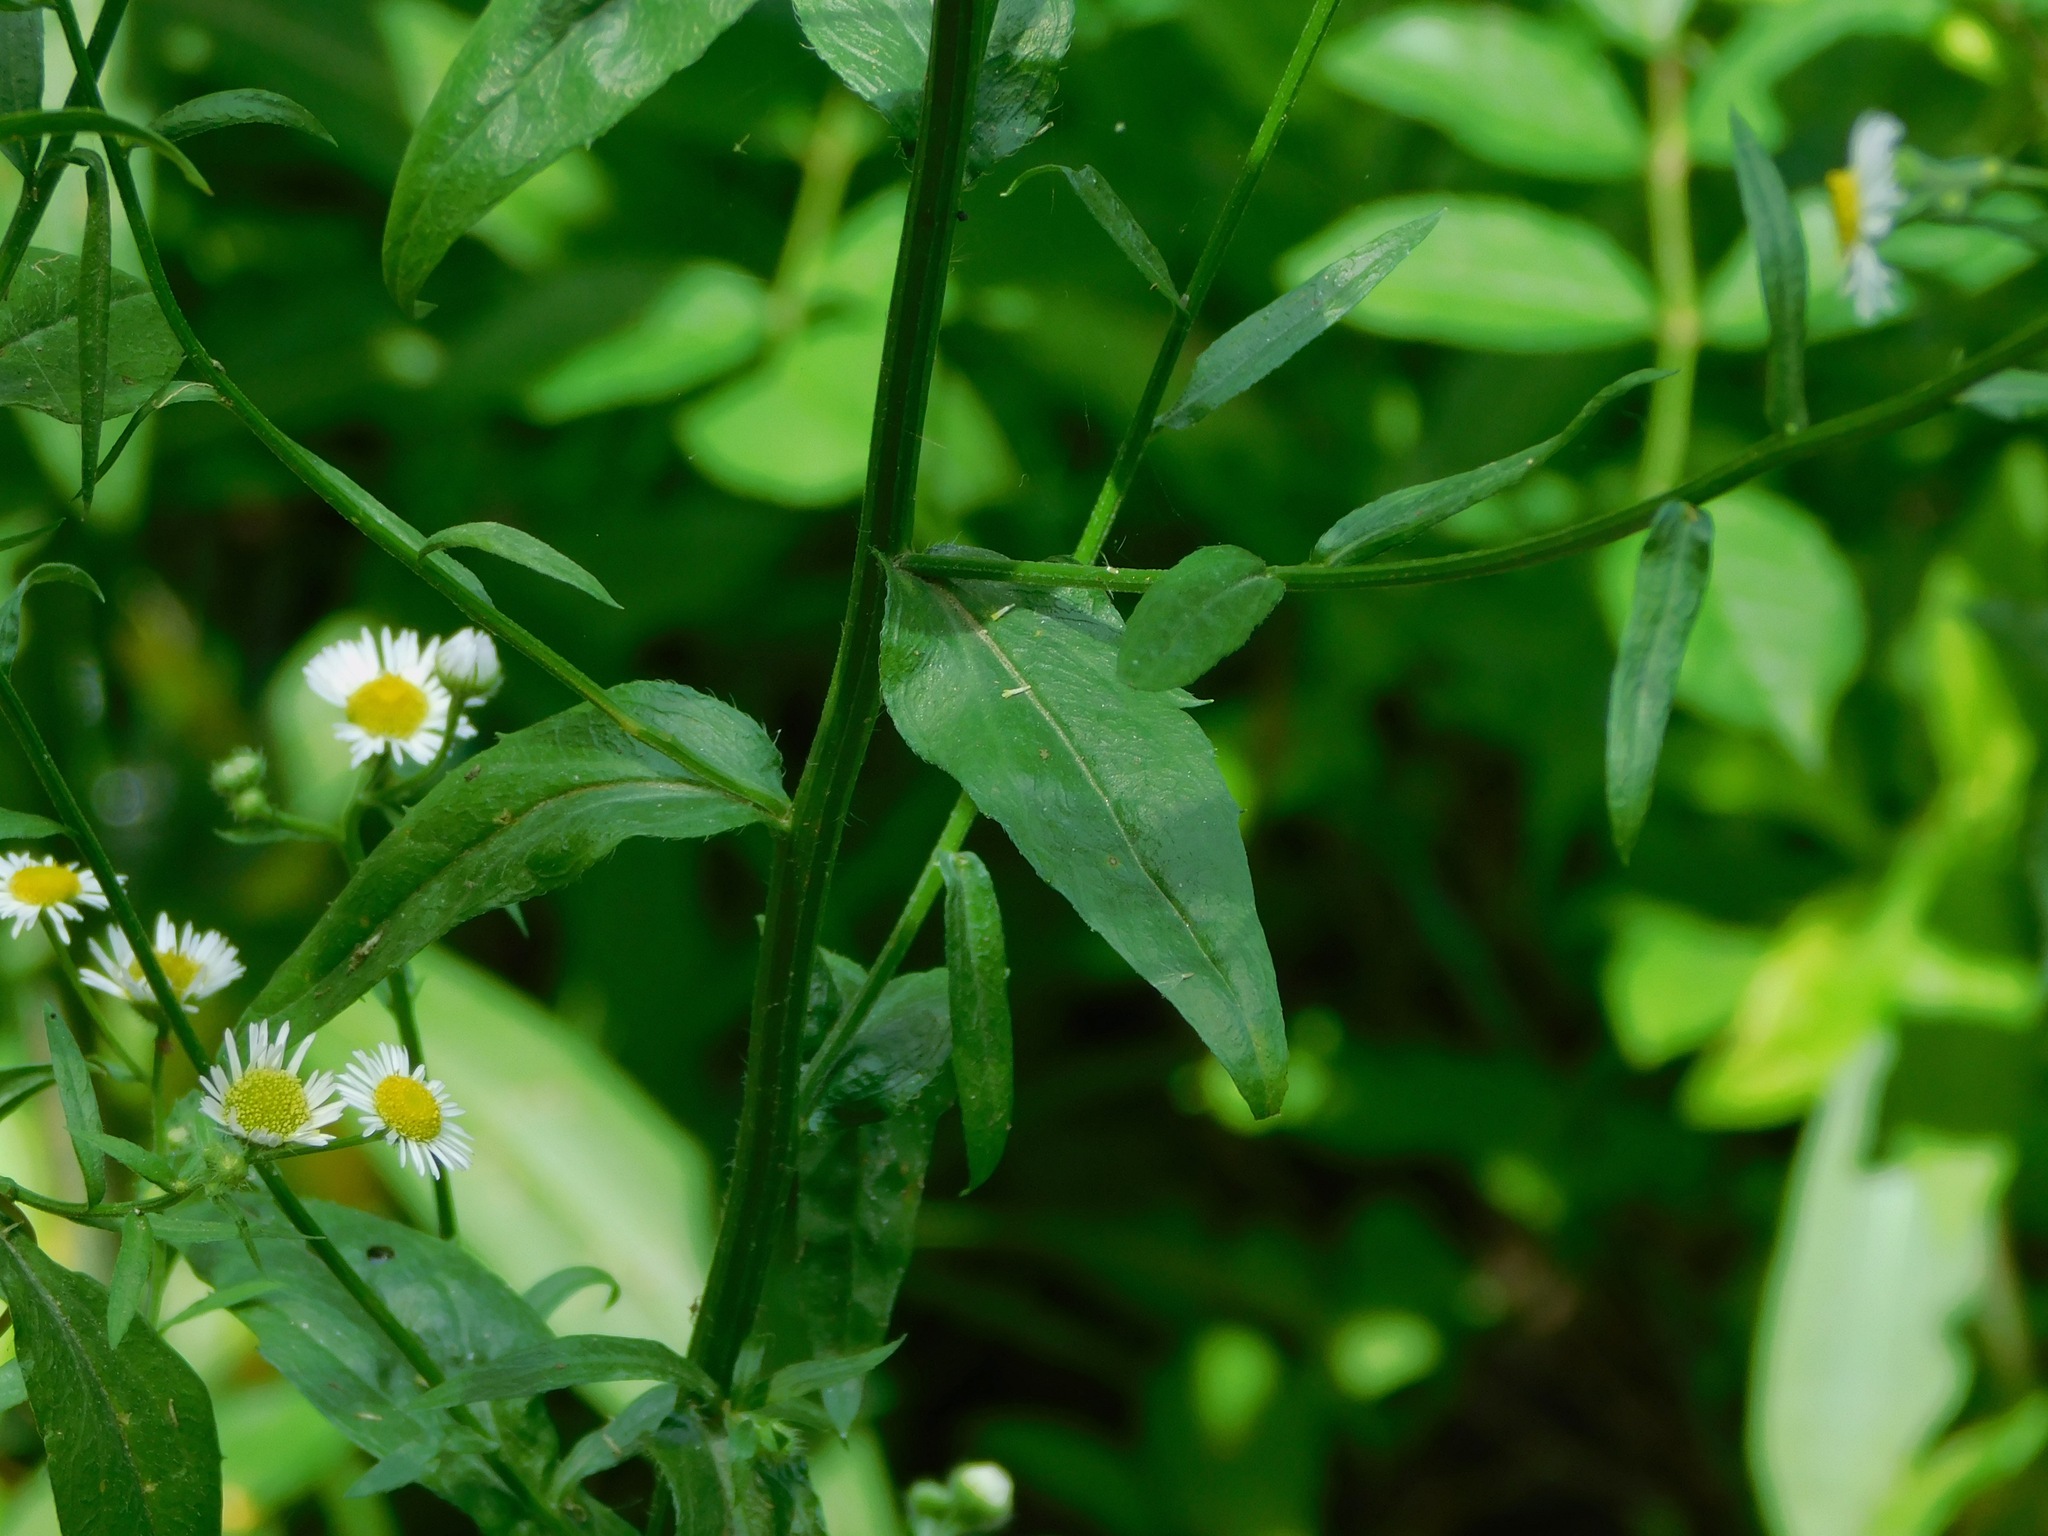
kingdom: Plantae
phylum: Tracheophyta
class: Magnoliopsida
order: Asterales
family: Asteraceae
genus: Erigeron
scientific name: Erigeron annuus
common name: Tall fleabane
